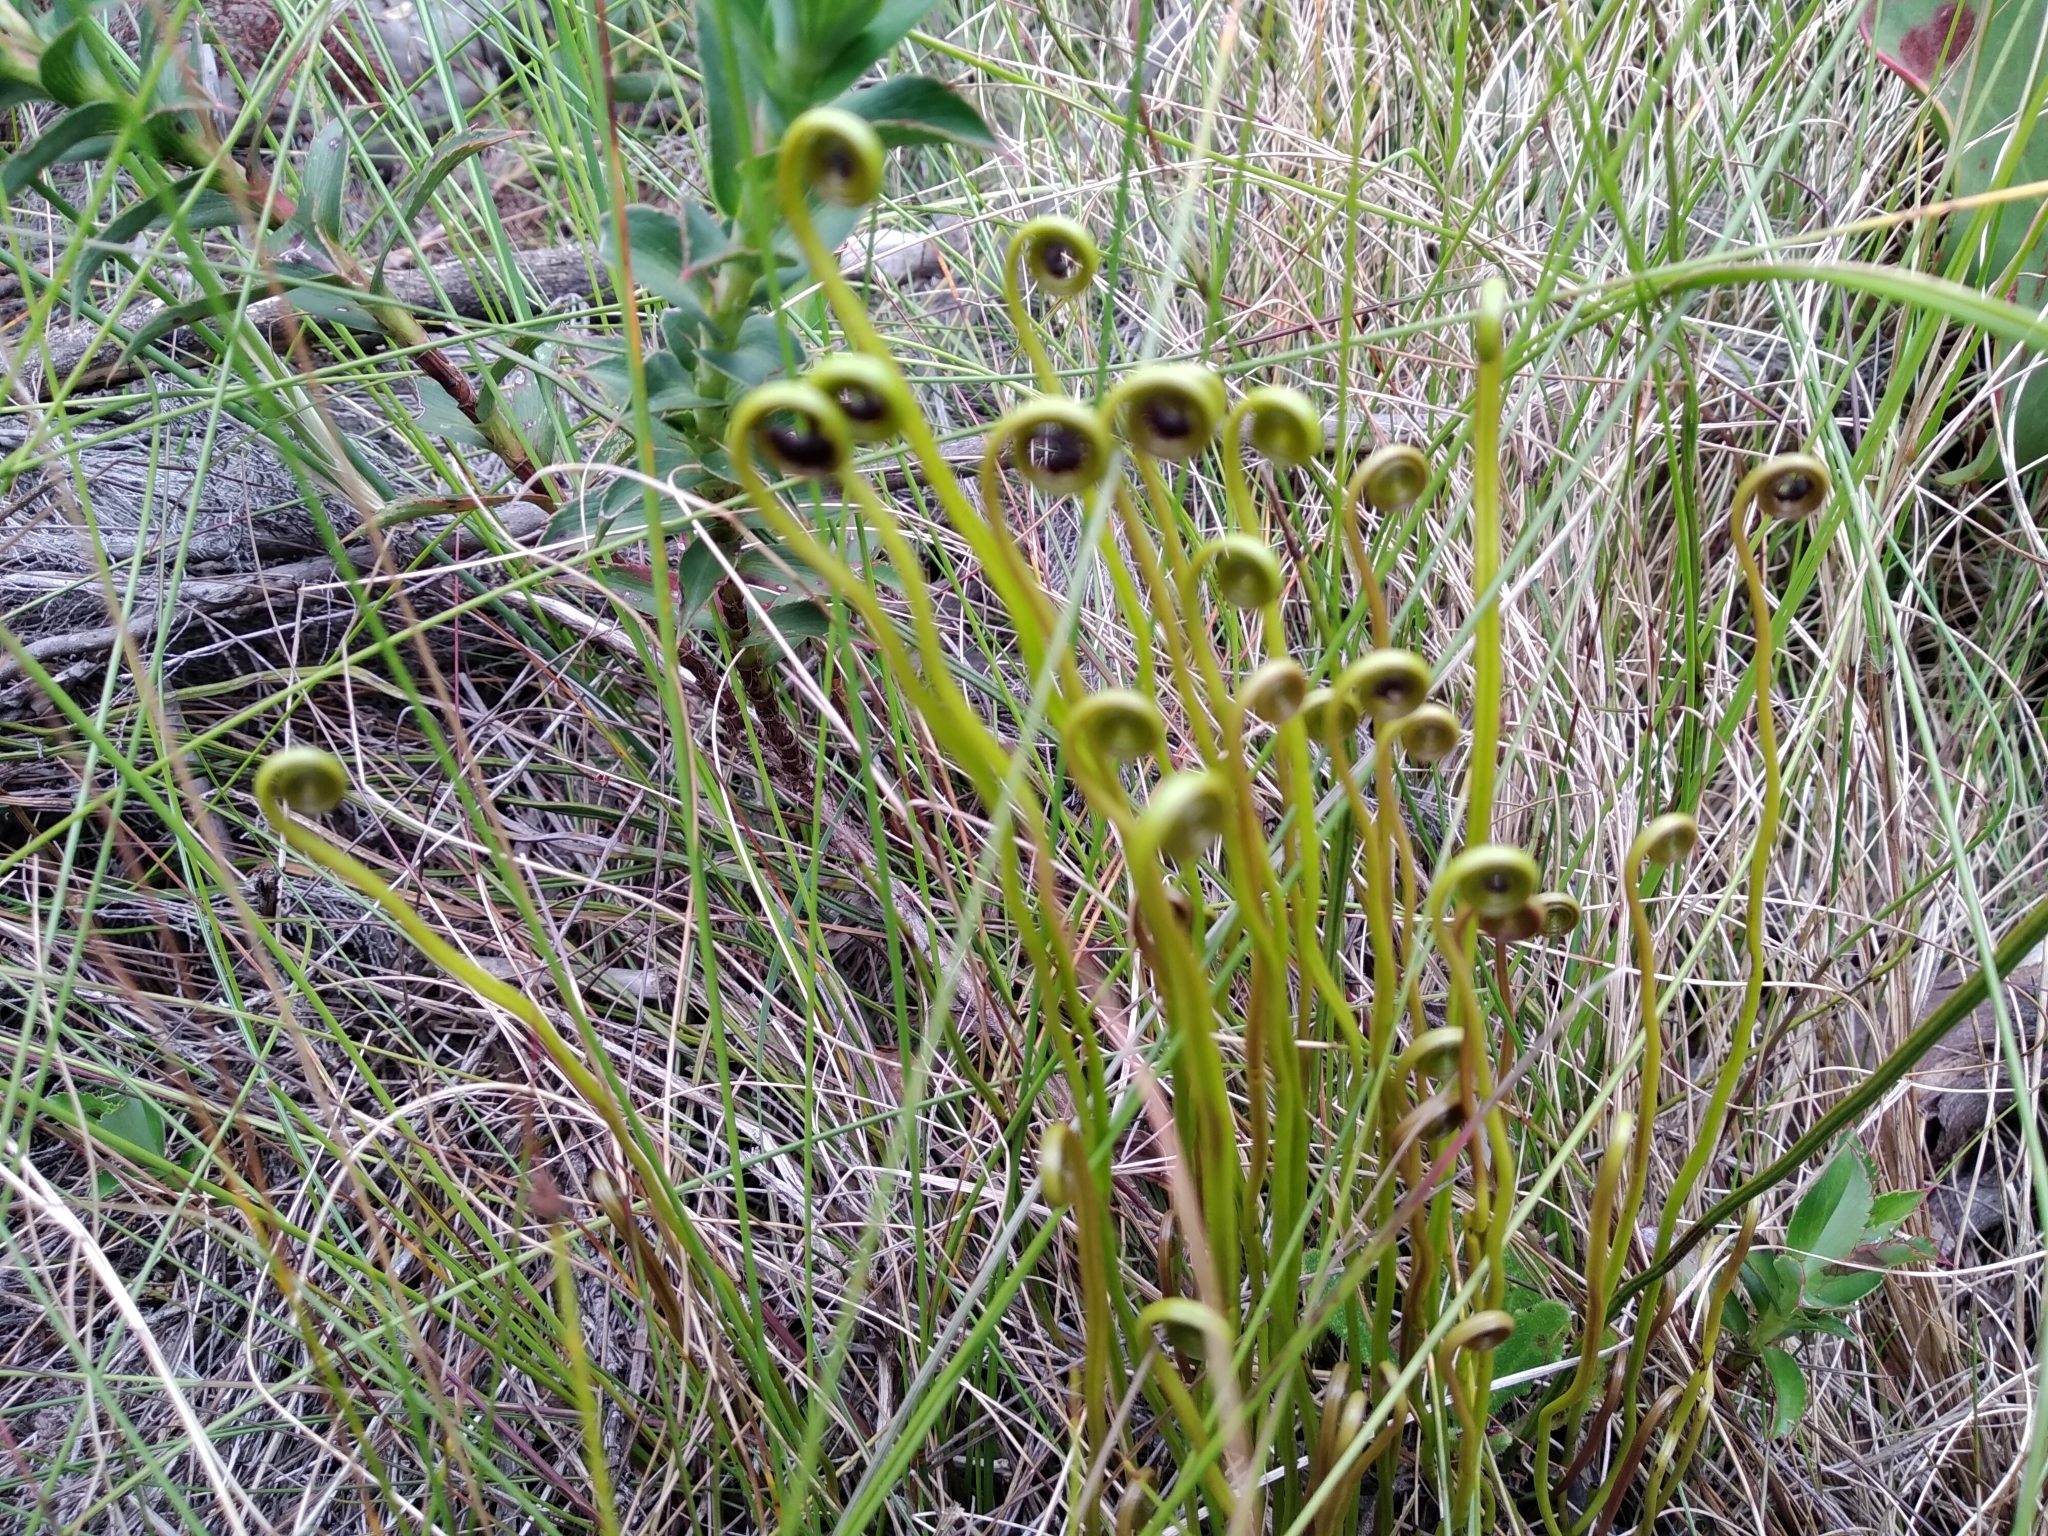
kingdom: Plantae
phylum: Tracheophyta
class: Polypodiopsida
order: Schizaeales
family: Schizaeaceae
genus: Schizaea
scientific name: Schizaea pectinata
